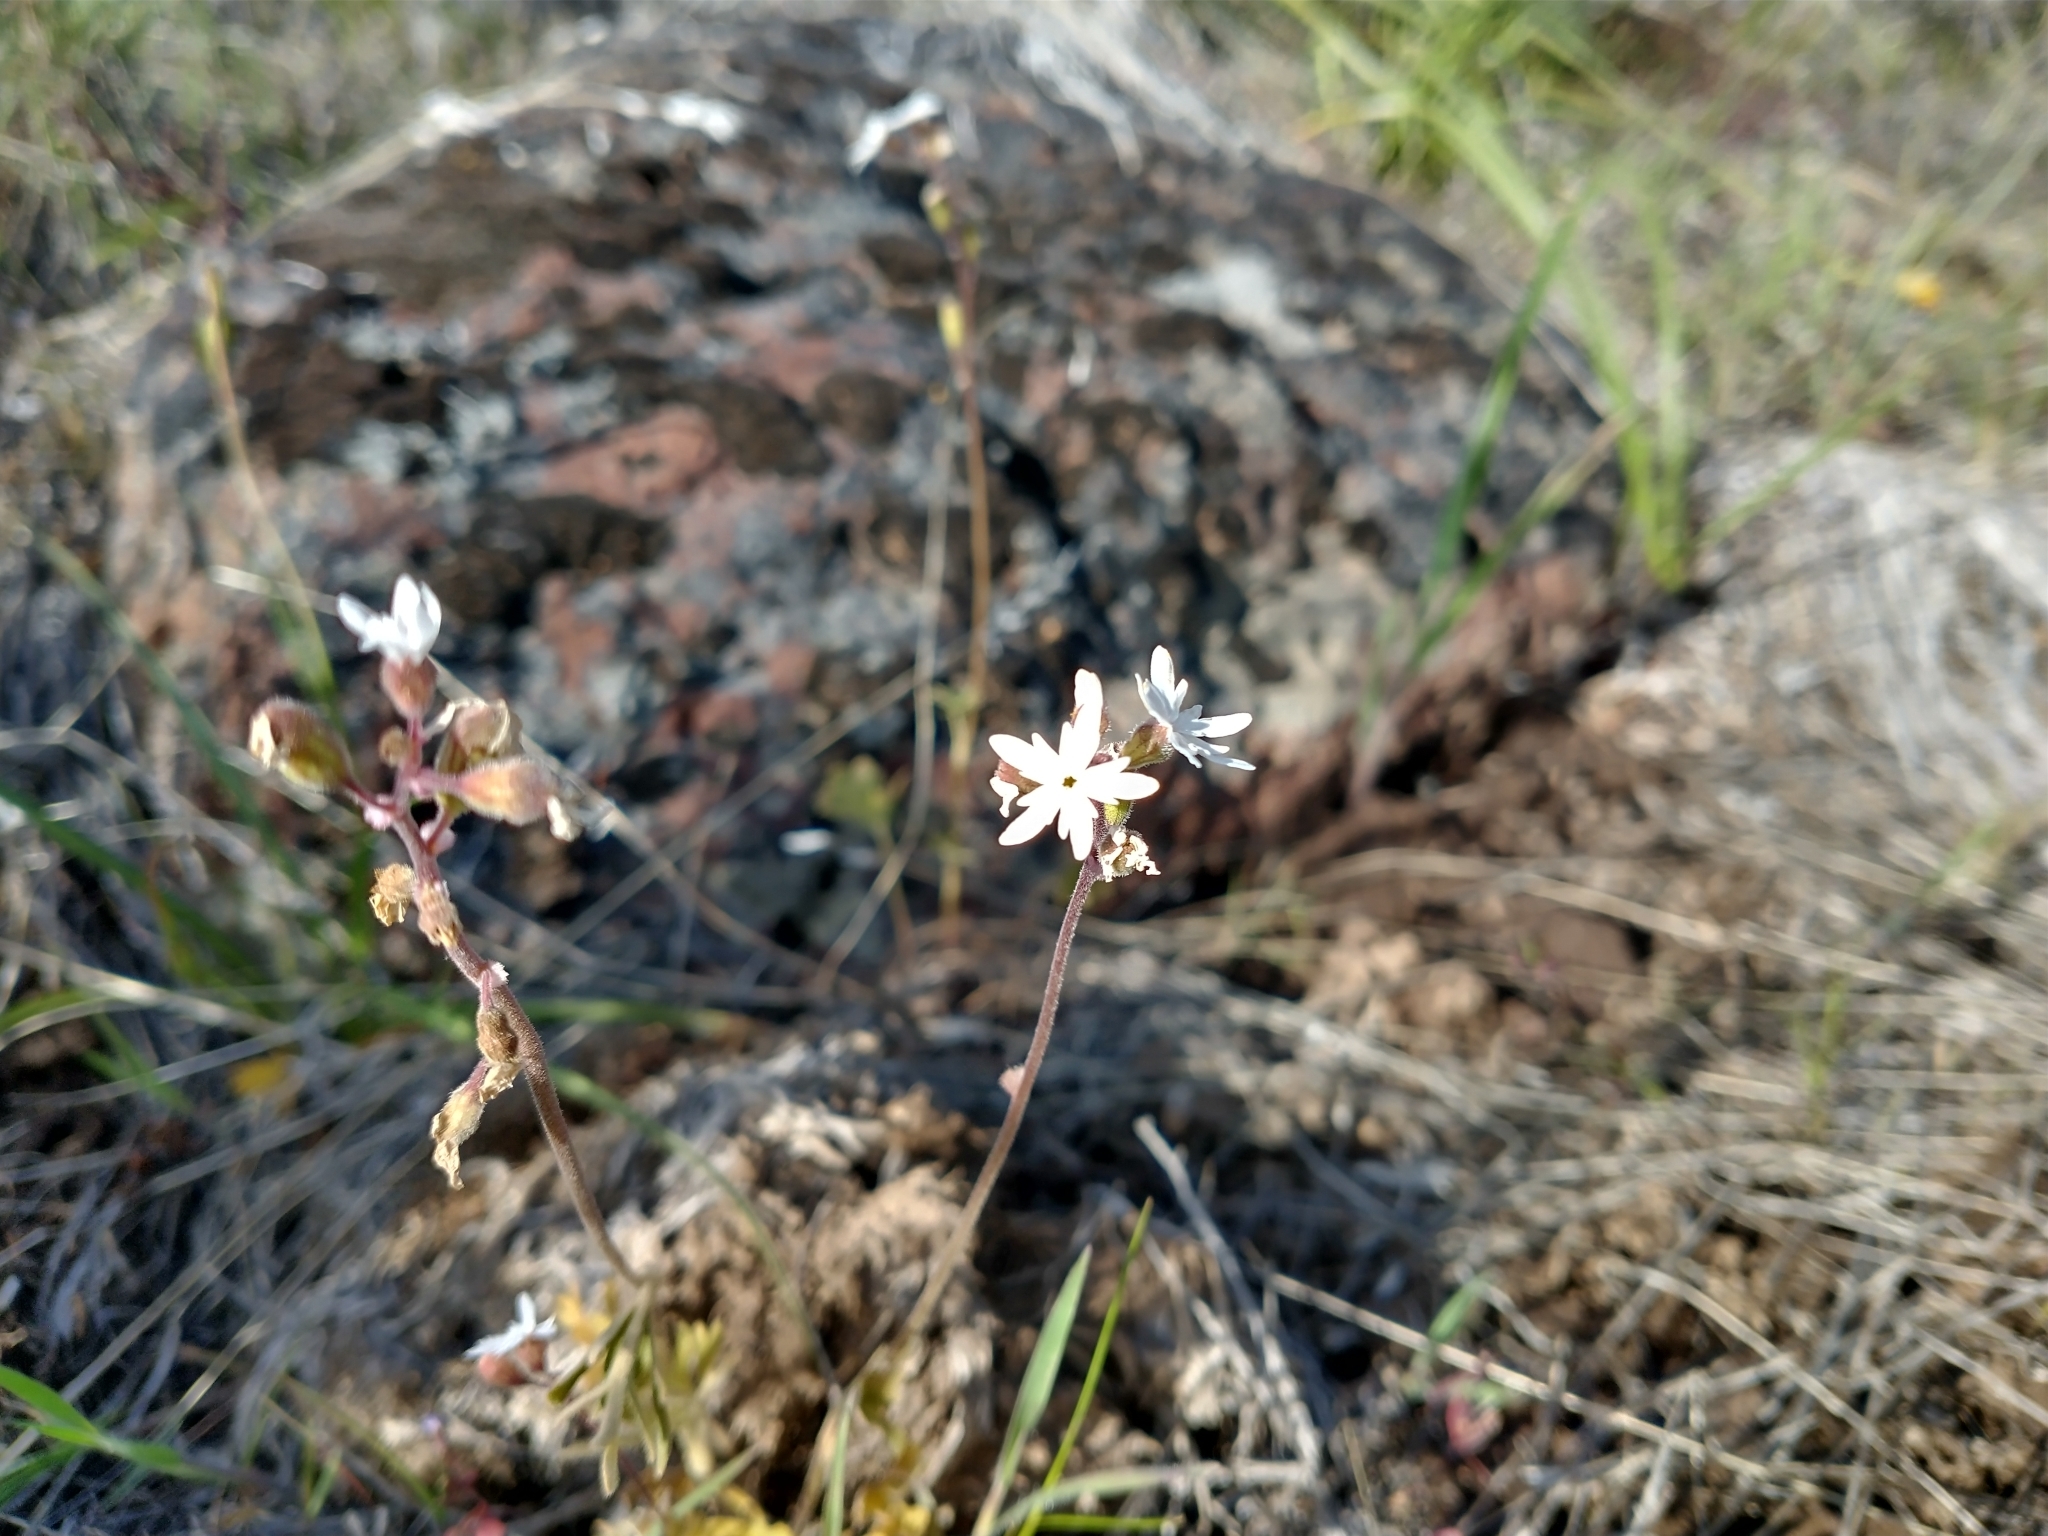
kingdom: Plantae
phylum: Tracheophyta
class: Magnoliopsida
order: Saxifragales
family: Saxifragaceae
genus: Lithophragma
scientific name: Lithophragma parviflorum
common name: Small-flowered fringe-cup
